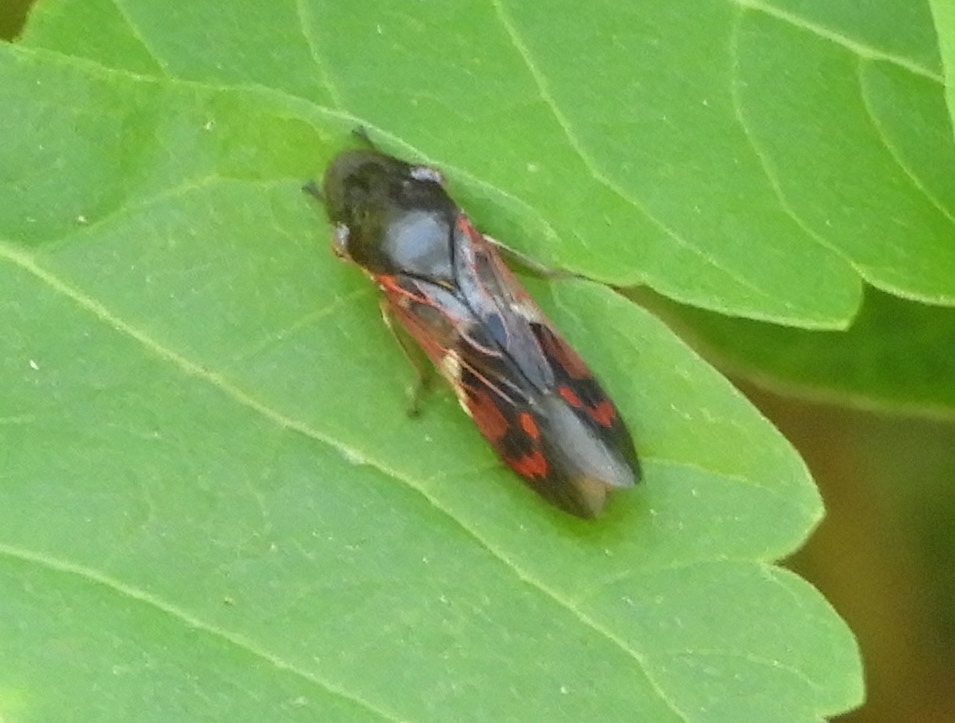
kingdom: Animalia
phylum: Arthropoda
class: Insecta
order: Hemiptera
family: Cicadellidae
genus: Homalodisca
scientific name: Homalodisca ichthyocephala
